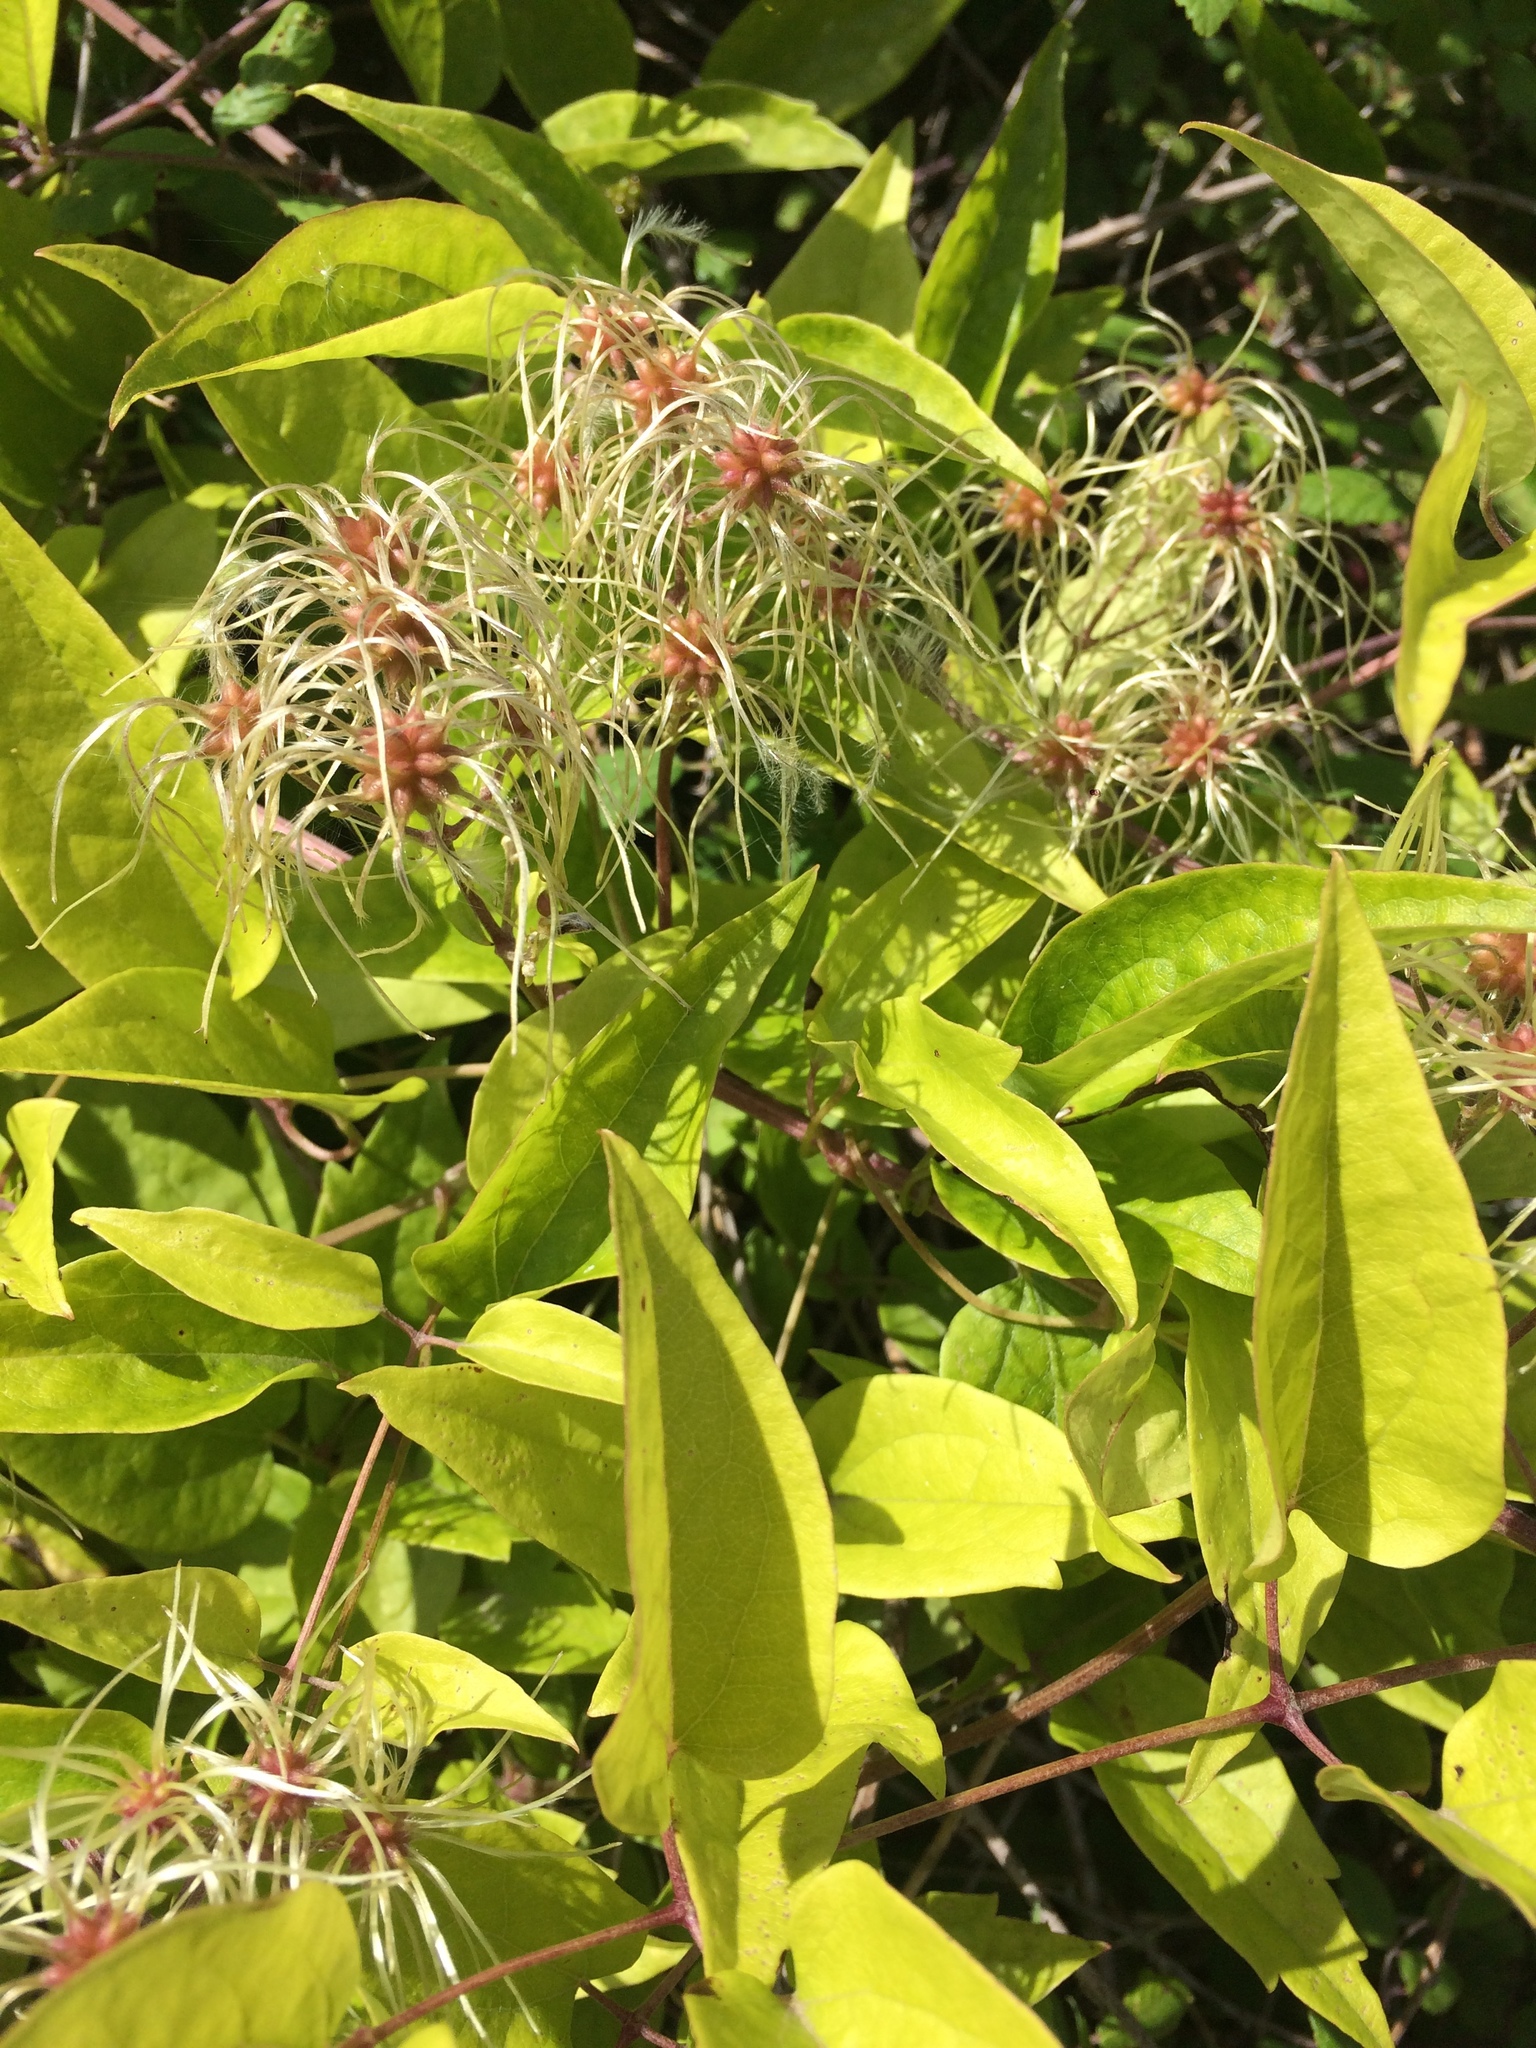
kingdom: Plantae
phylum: Tracheophyta
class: Magnoliopsida
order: Ranunculales
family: Ranunculaceae
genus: Clematis
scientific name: Clematis vitalba
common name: Evergreen clematis
